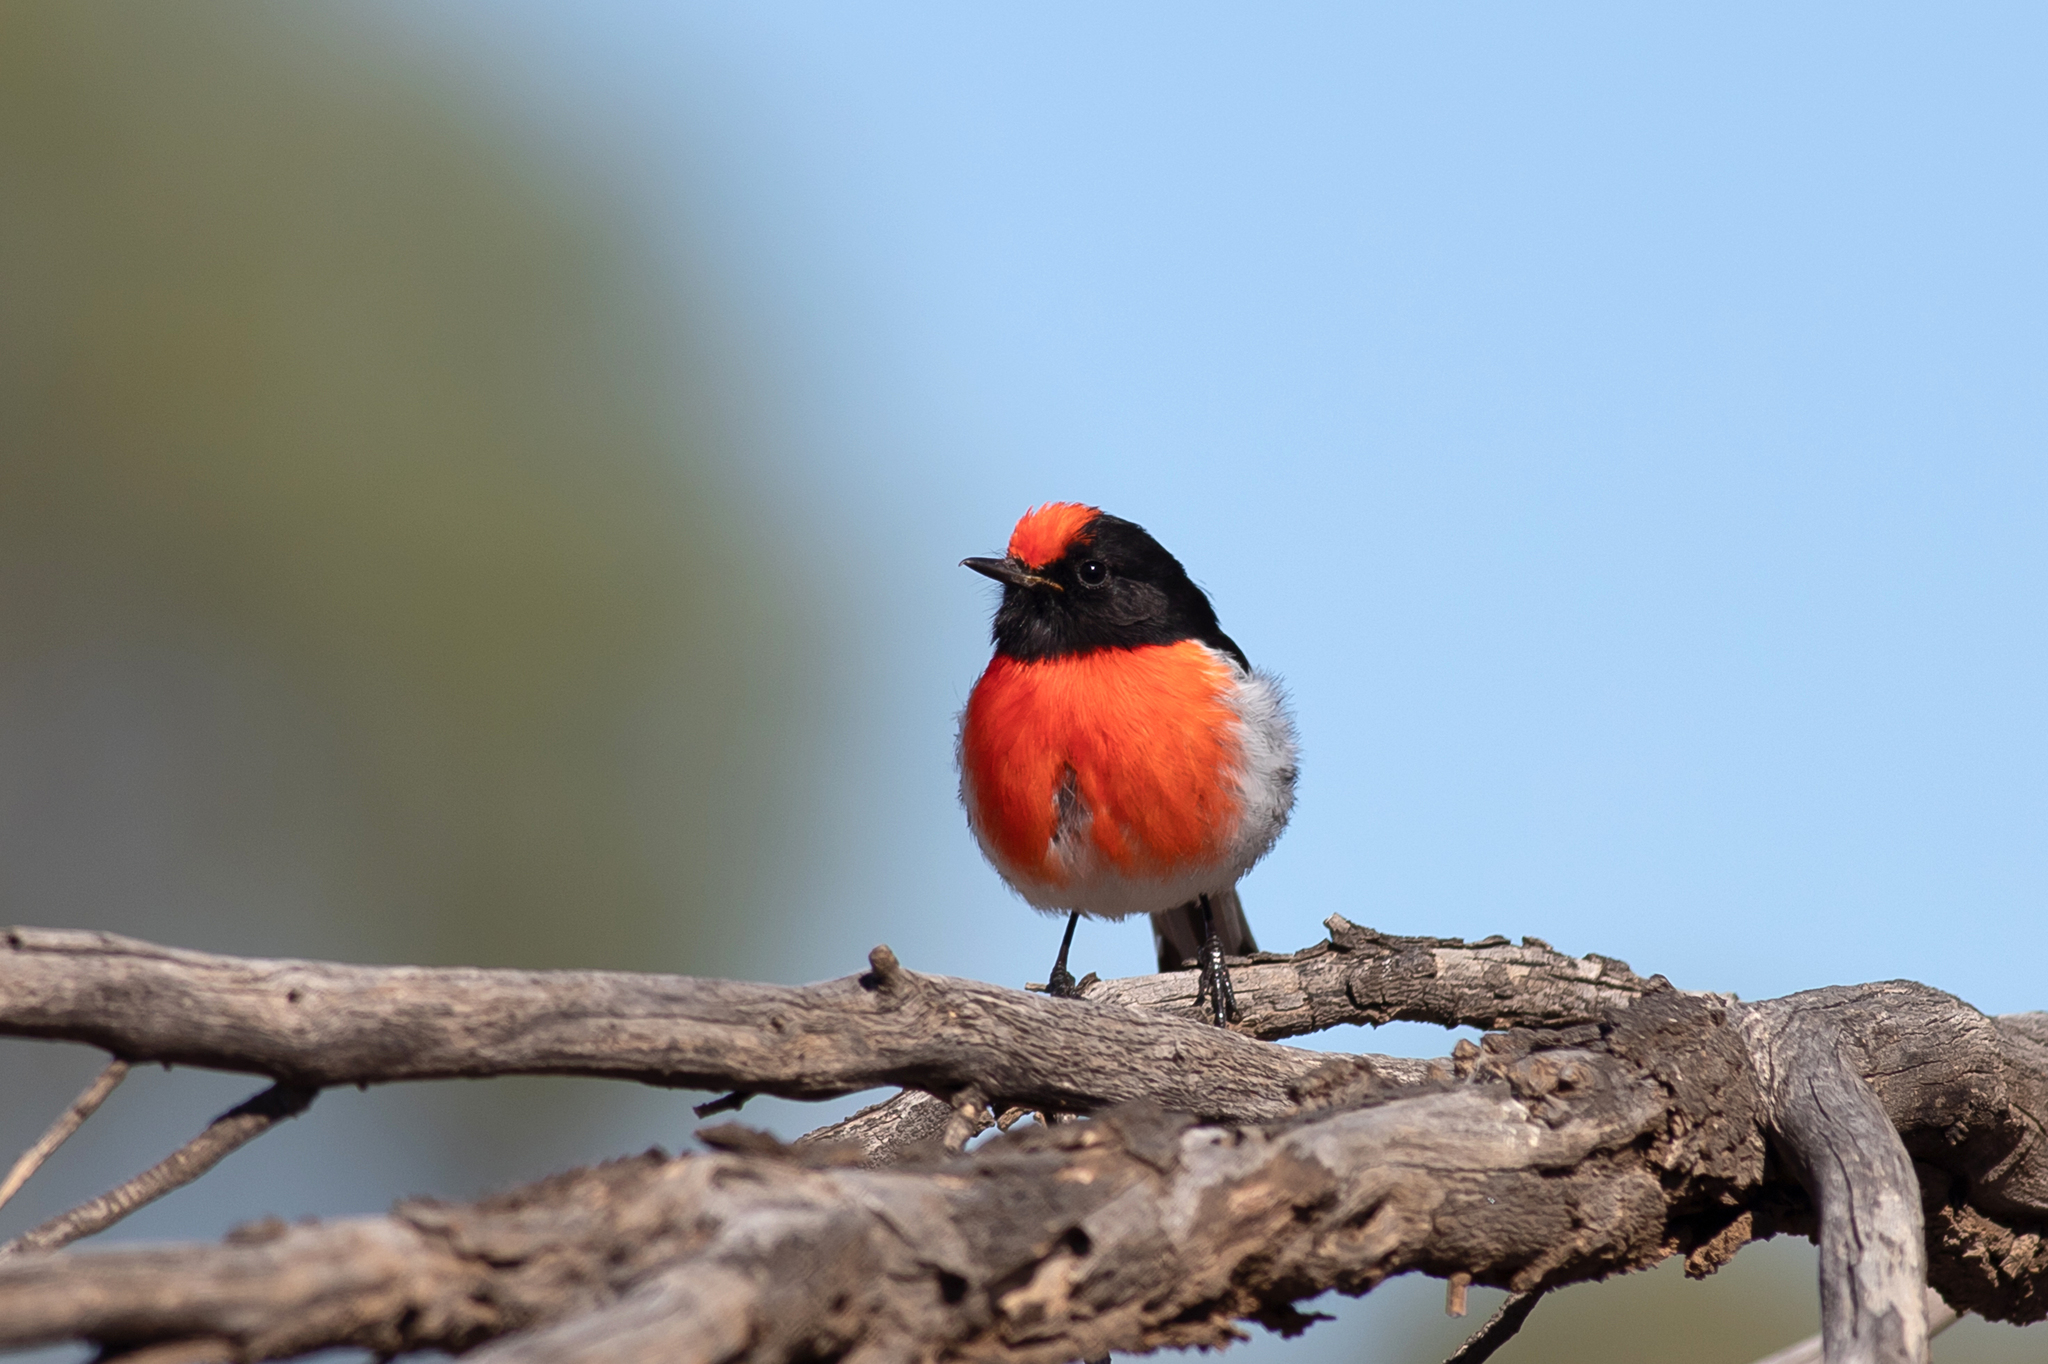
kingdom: Animalia
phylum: Chordata
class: Aves
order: Passeriformes
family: Petroicidae
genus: Petroica
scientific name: Petroica goodenovii
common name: Red-capped robin
